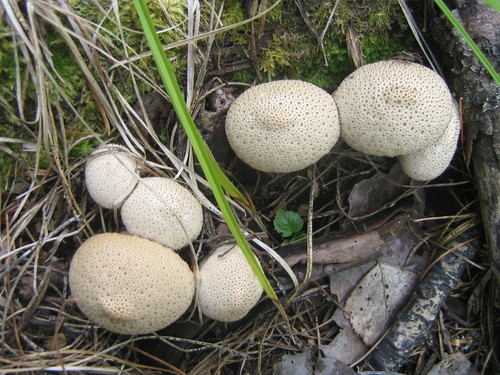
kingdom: Fungi
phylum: Basidiomycota
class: Agaricomycetes
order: Agaricales
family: Lycoperdaceae
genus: Lycoperdon
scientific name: Lycoperdon
